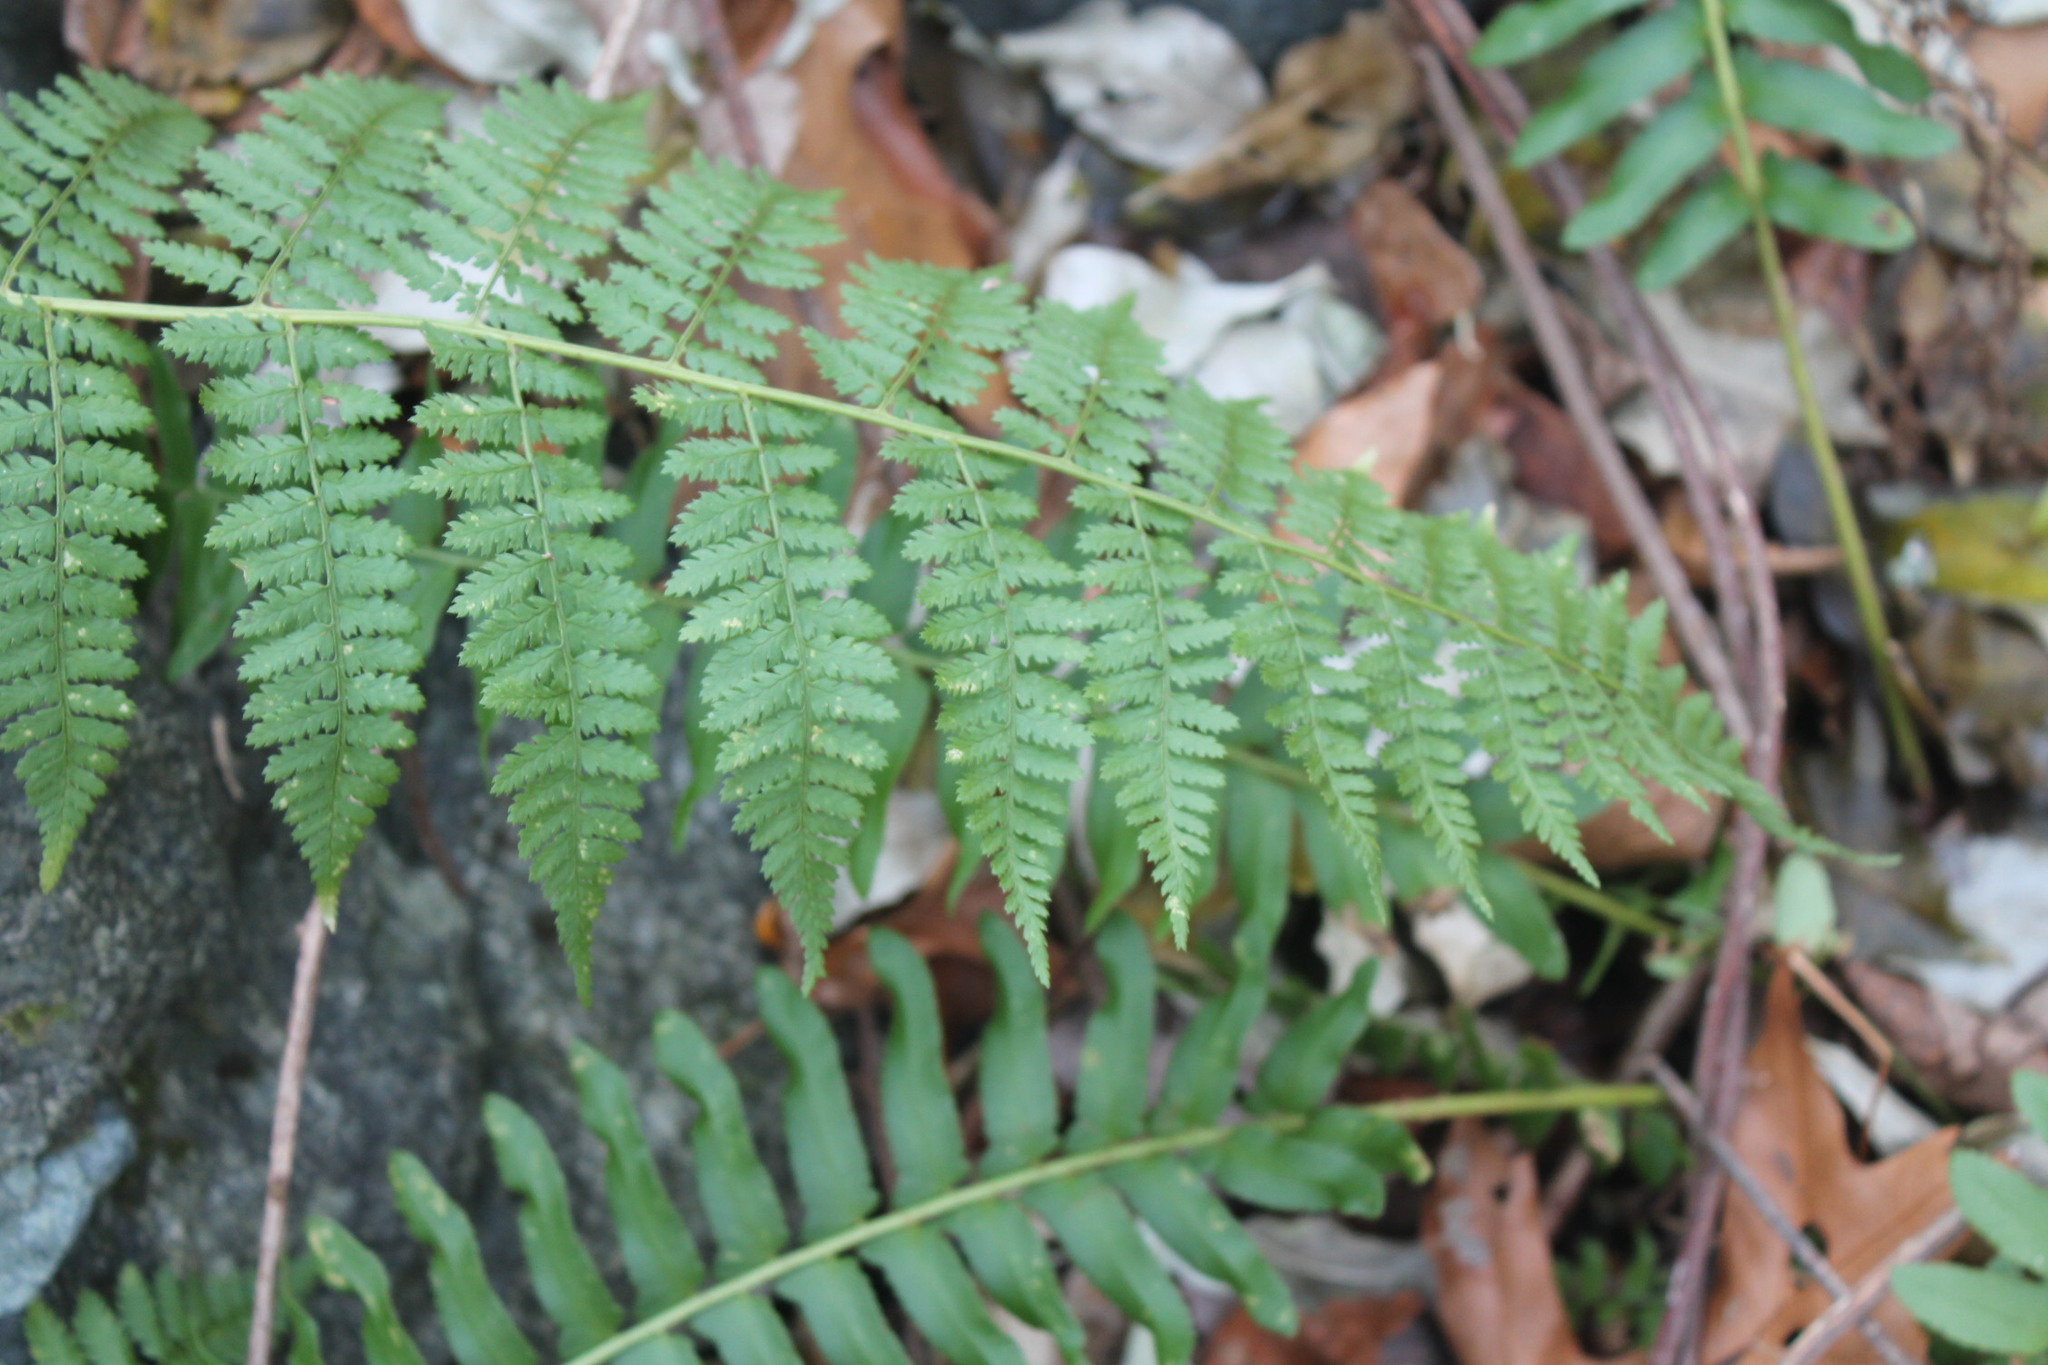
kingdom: Plantae
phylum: Tracheophyta
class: Polypodiopsida
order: Polypodiales
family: Dryopteridaceae
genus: Dryopteris
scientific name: Dryopteris intermedia
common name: Evergreen wood fern
